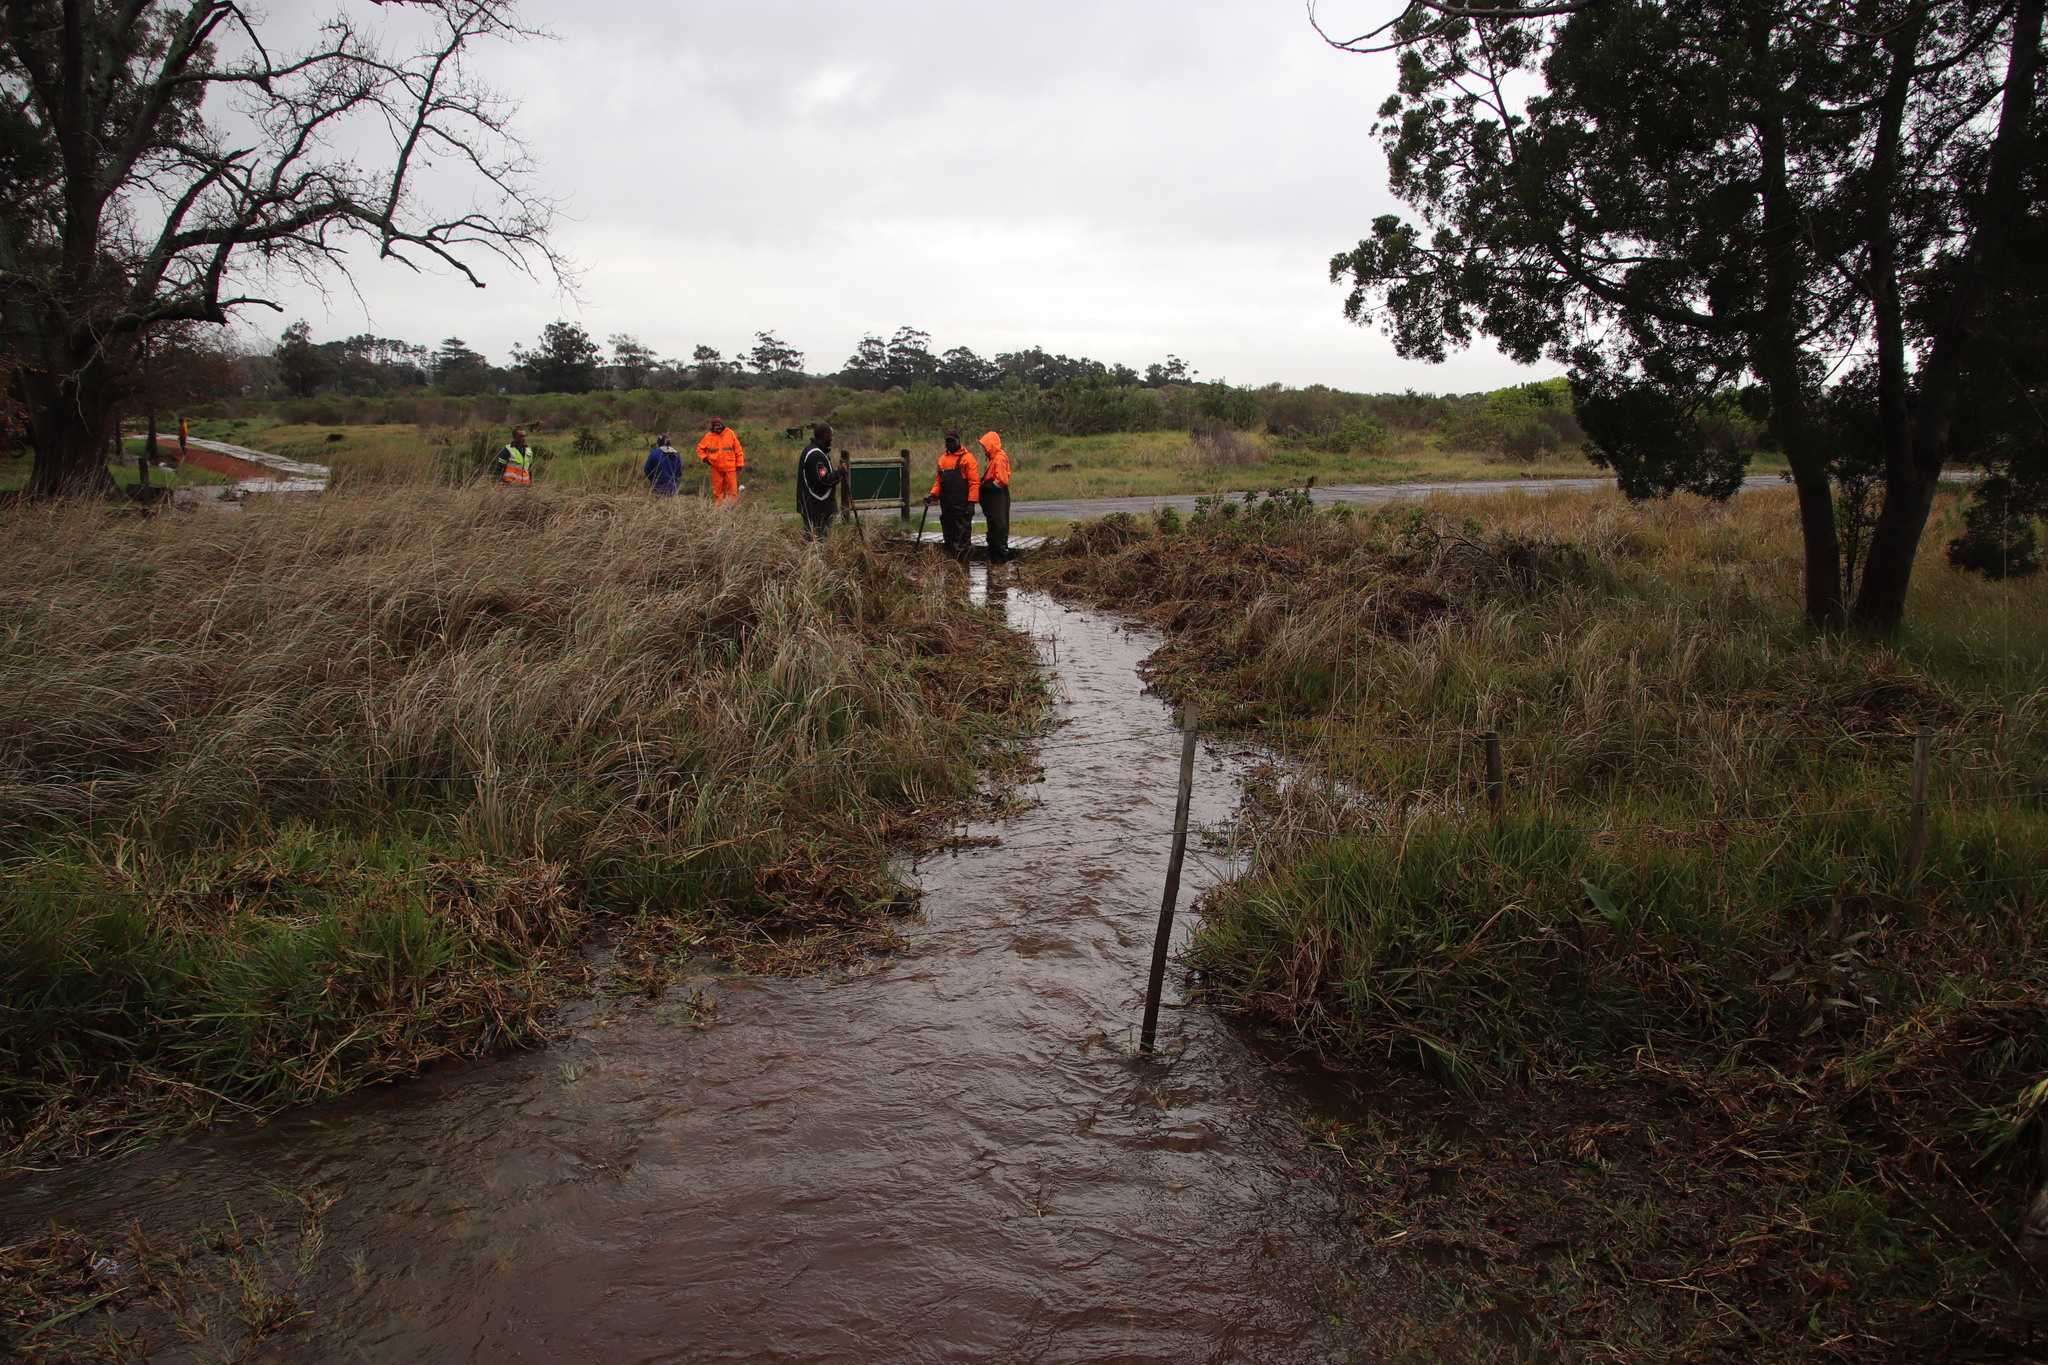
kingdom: Plantae
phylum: Tracheophyta
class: Magnoliopsida
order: Ericales
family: Ericaceae
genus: Erica
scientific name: Erica verticillata
